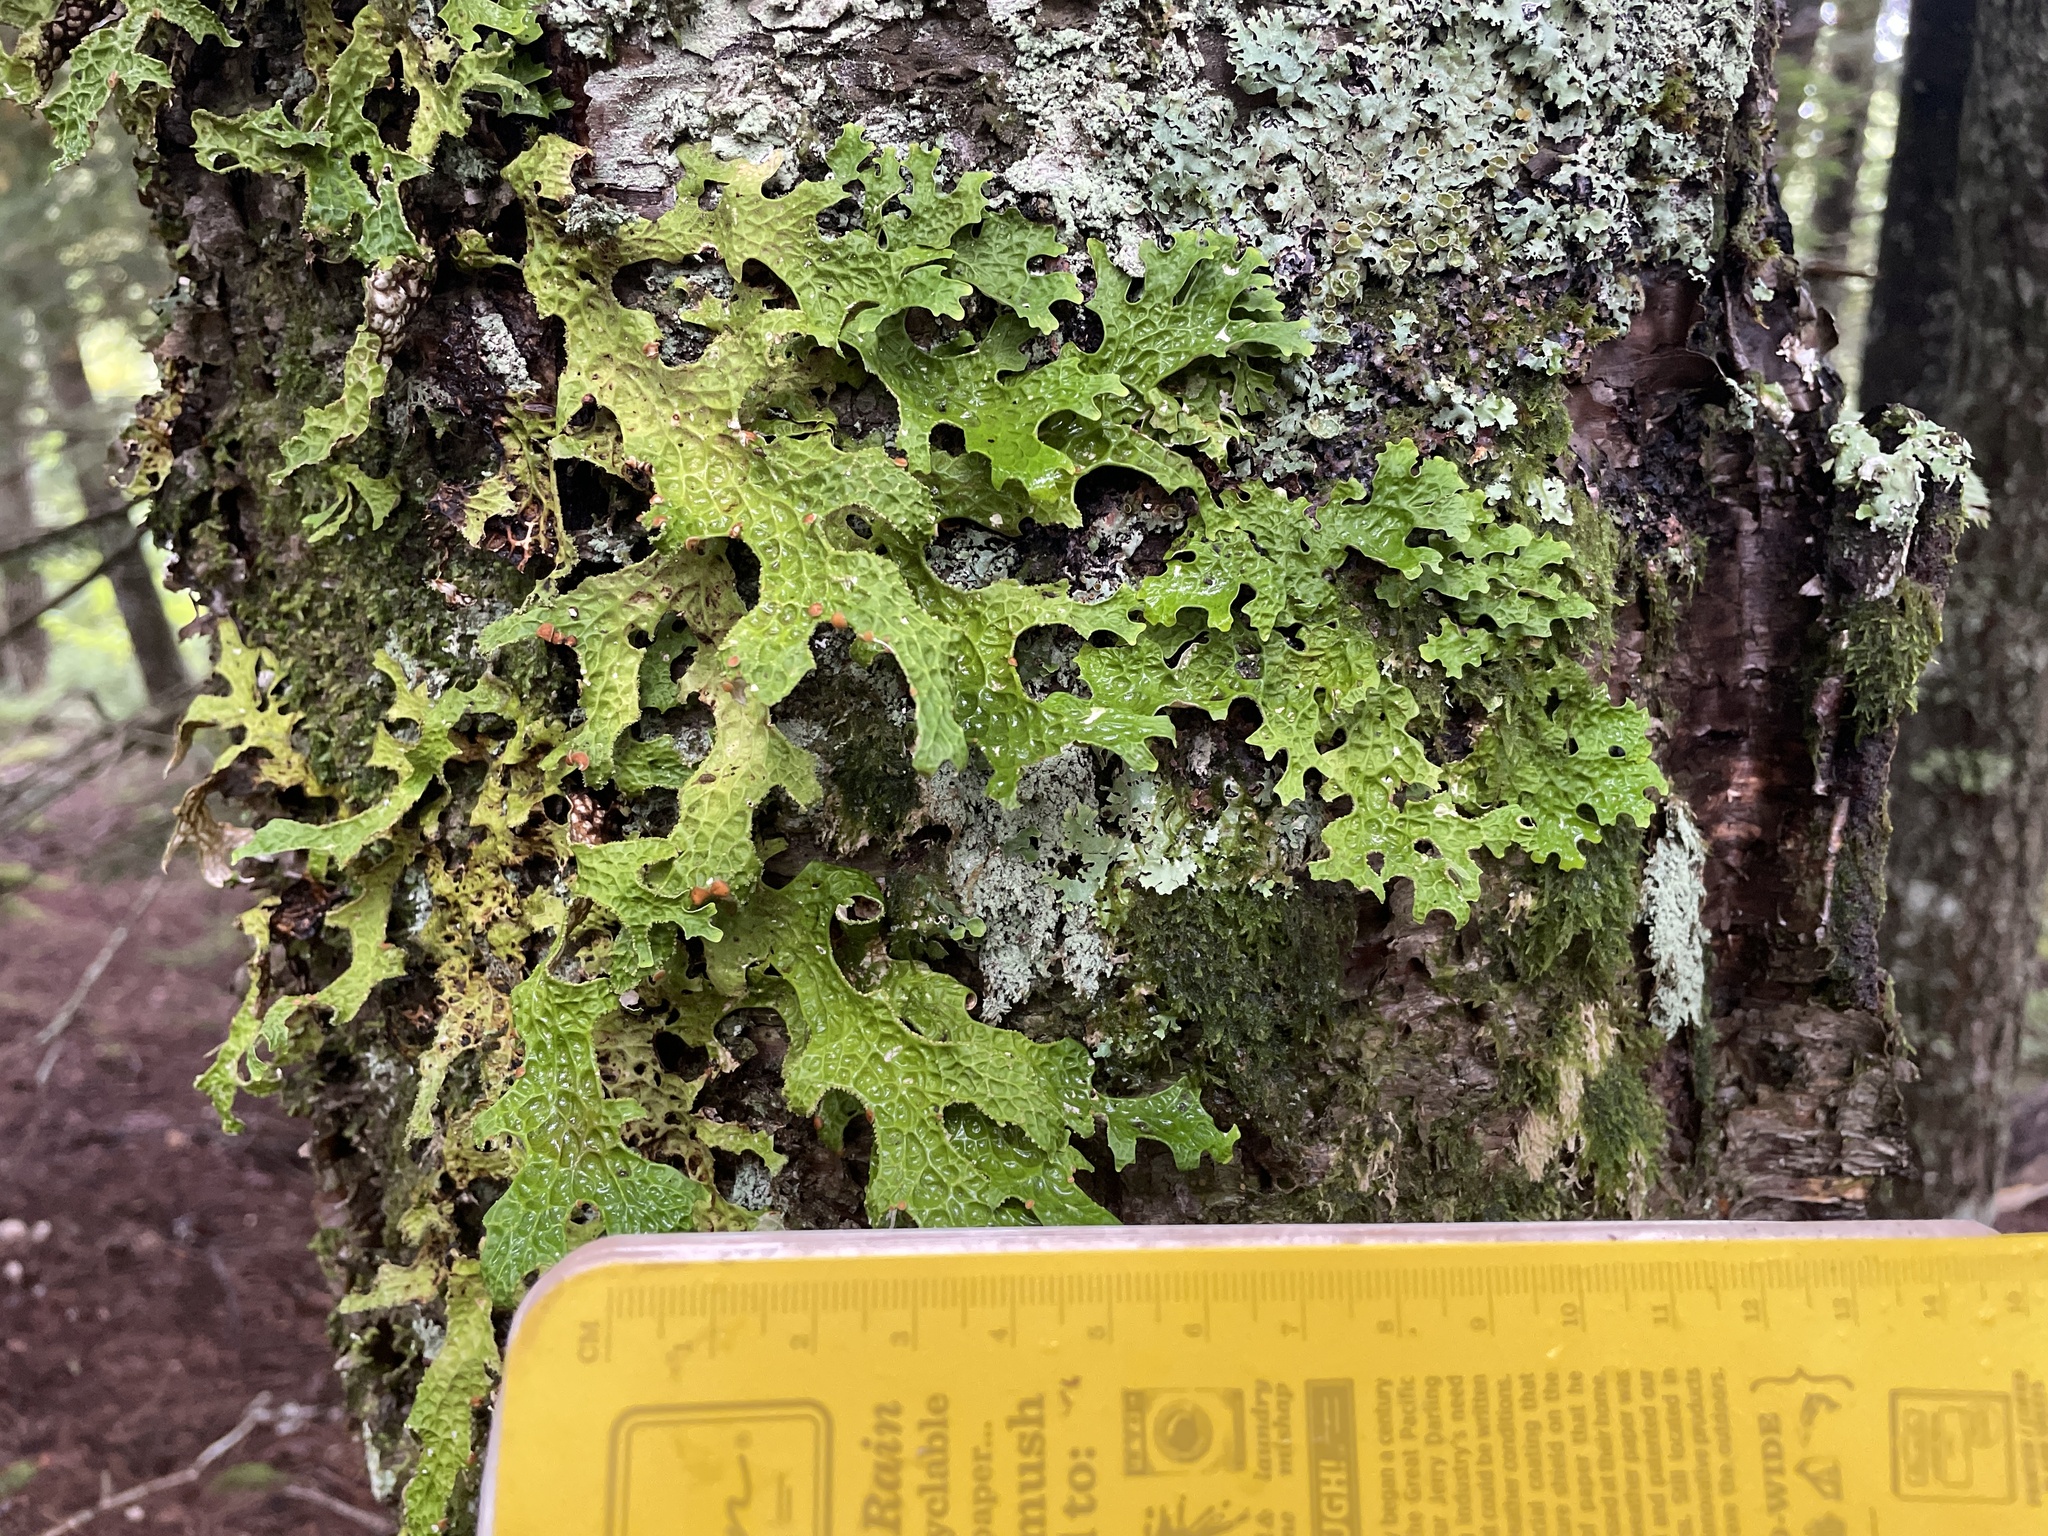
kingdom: Fungi
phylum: Ascomycota
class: Lecanoromycetes
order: Peltigerales
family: Lobariaceae
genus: Lobaria
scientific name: Lobaria pulmonaria
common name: Lungwort
